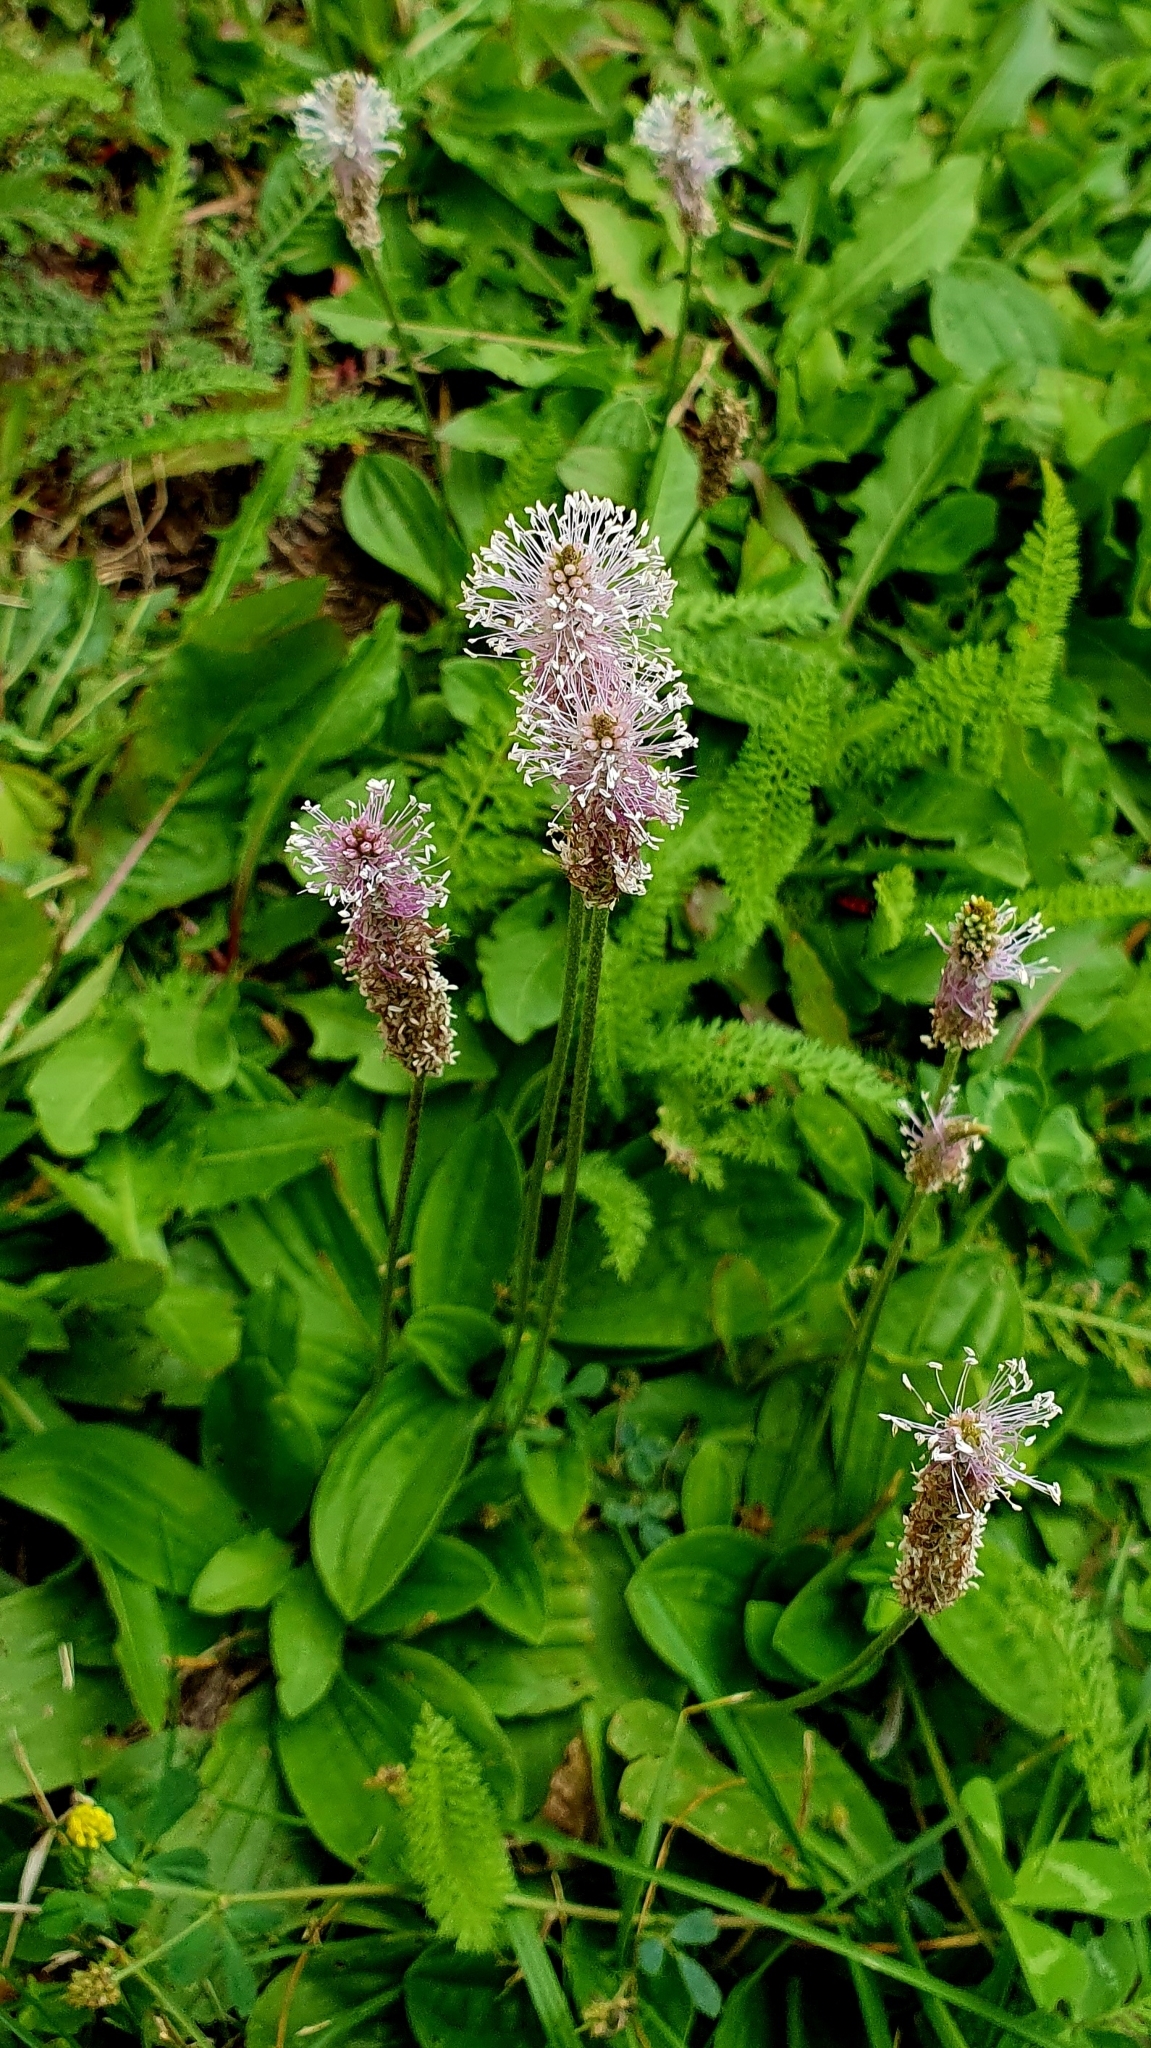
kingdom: Plantae
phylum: Tracheophyta
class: Magnoliopsida
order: Lamiales
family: Plantaginaceae
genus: Plantago
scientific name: Plantago media
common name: Hoary plantain
